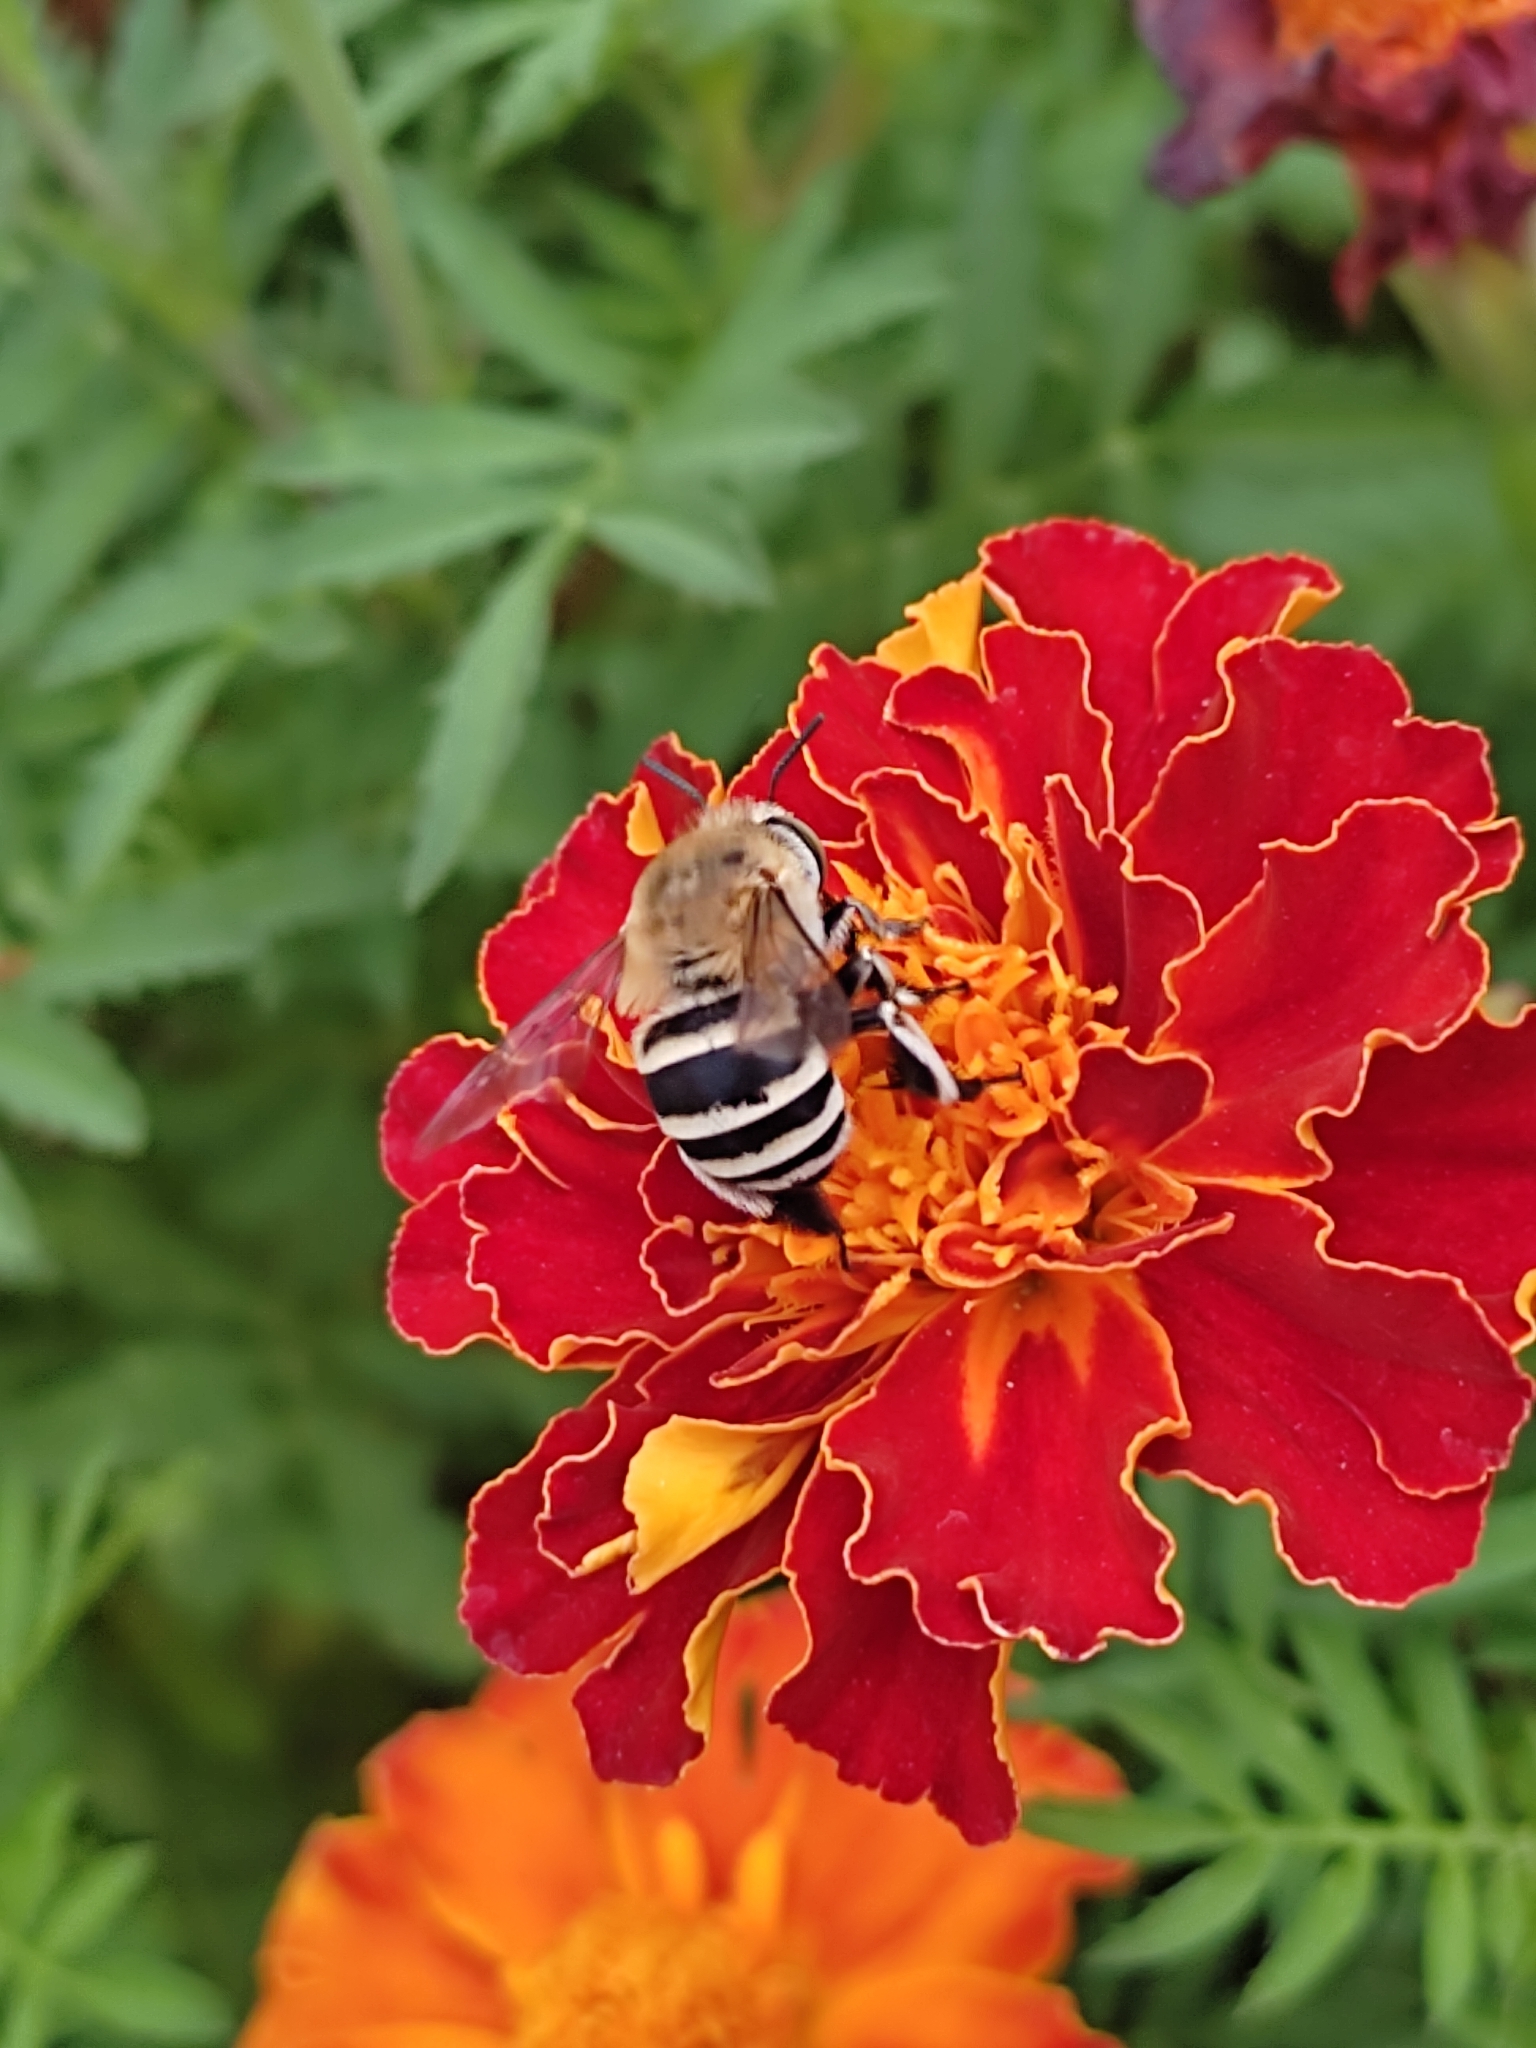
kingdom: Animalia
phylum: Arthropoda
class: Insecta
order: Hymenoptera
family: Apidae
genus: Amegilla
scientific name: Amegilla quadrifasciata
